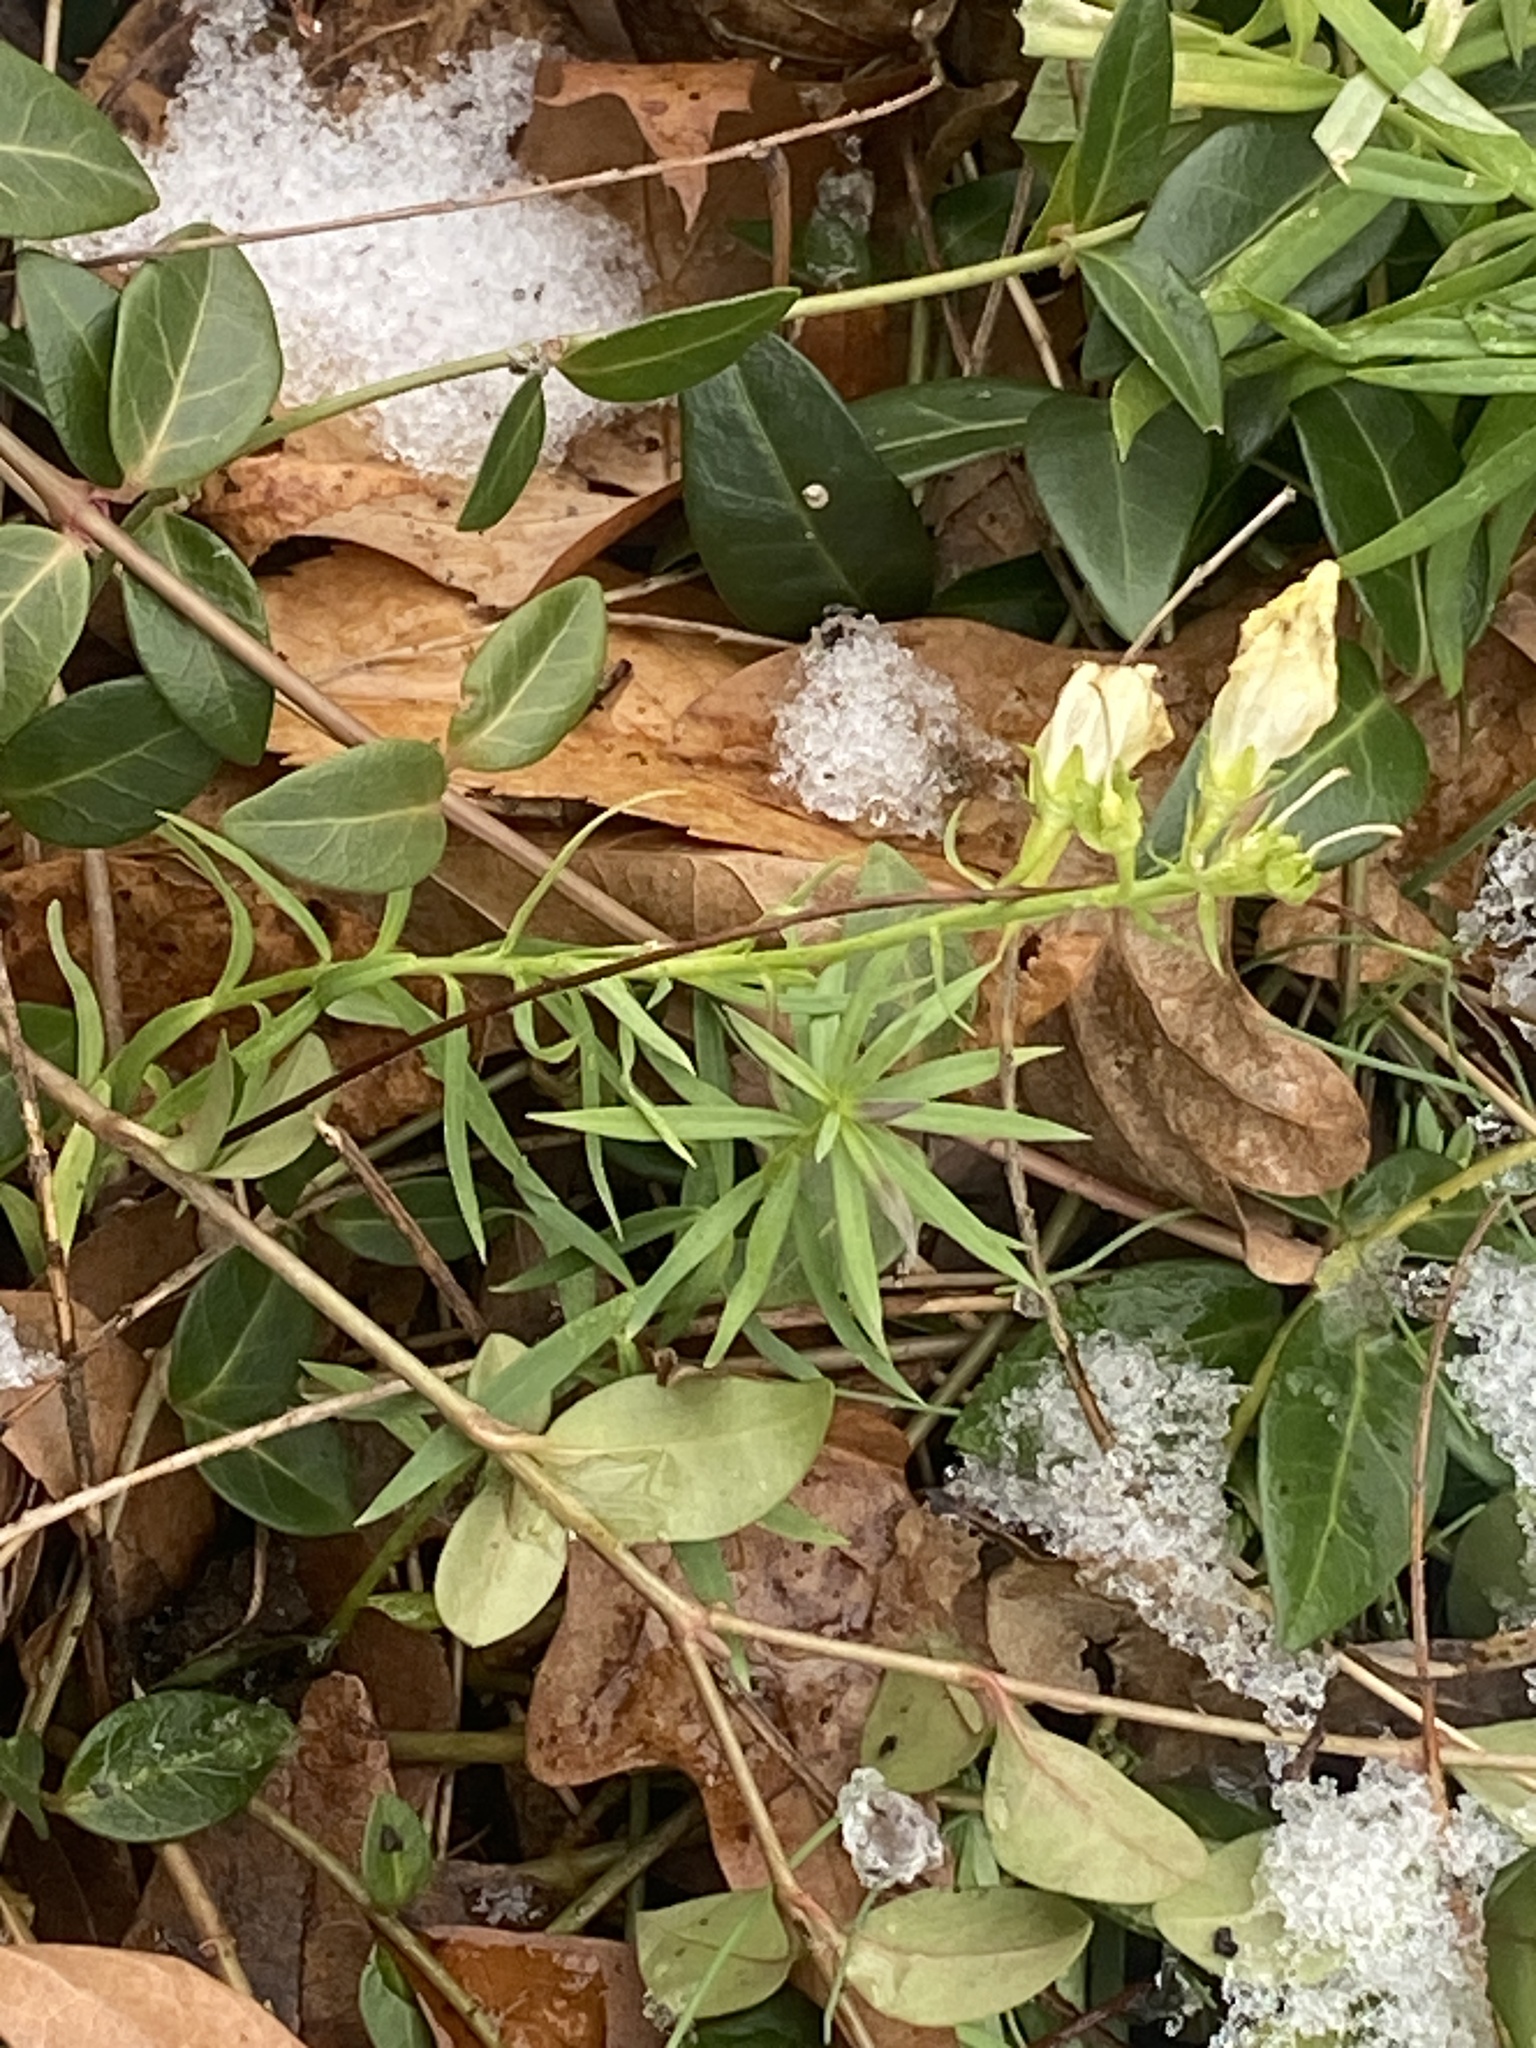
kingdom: Plantae
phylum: Tracheophyta
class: Magnoliopsida
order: Lamiales
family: Plantaginaceae
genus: Linaria
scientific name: Linaria vulgaris
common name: Butter and eggs
